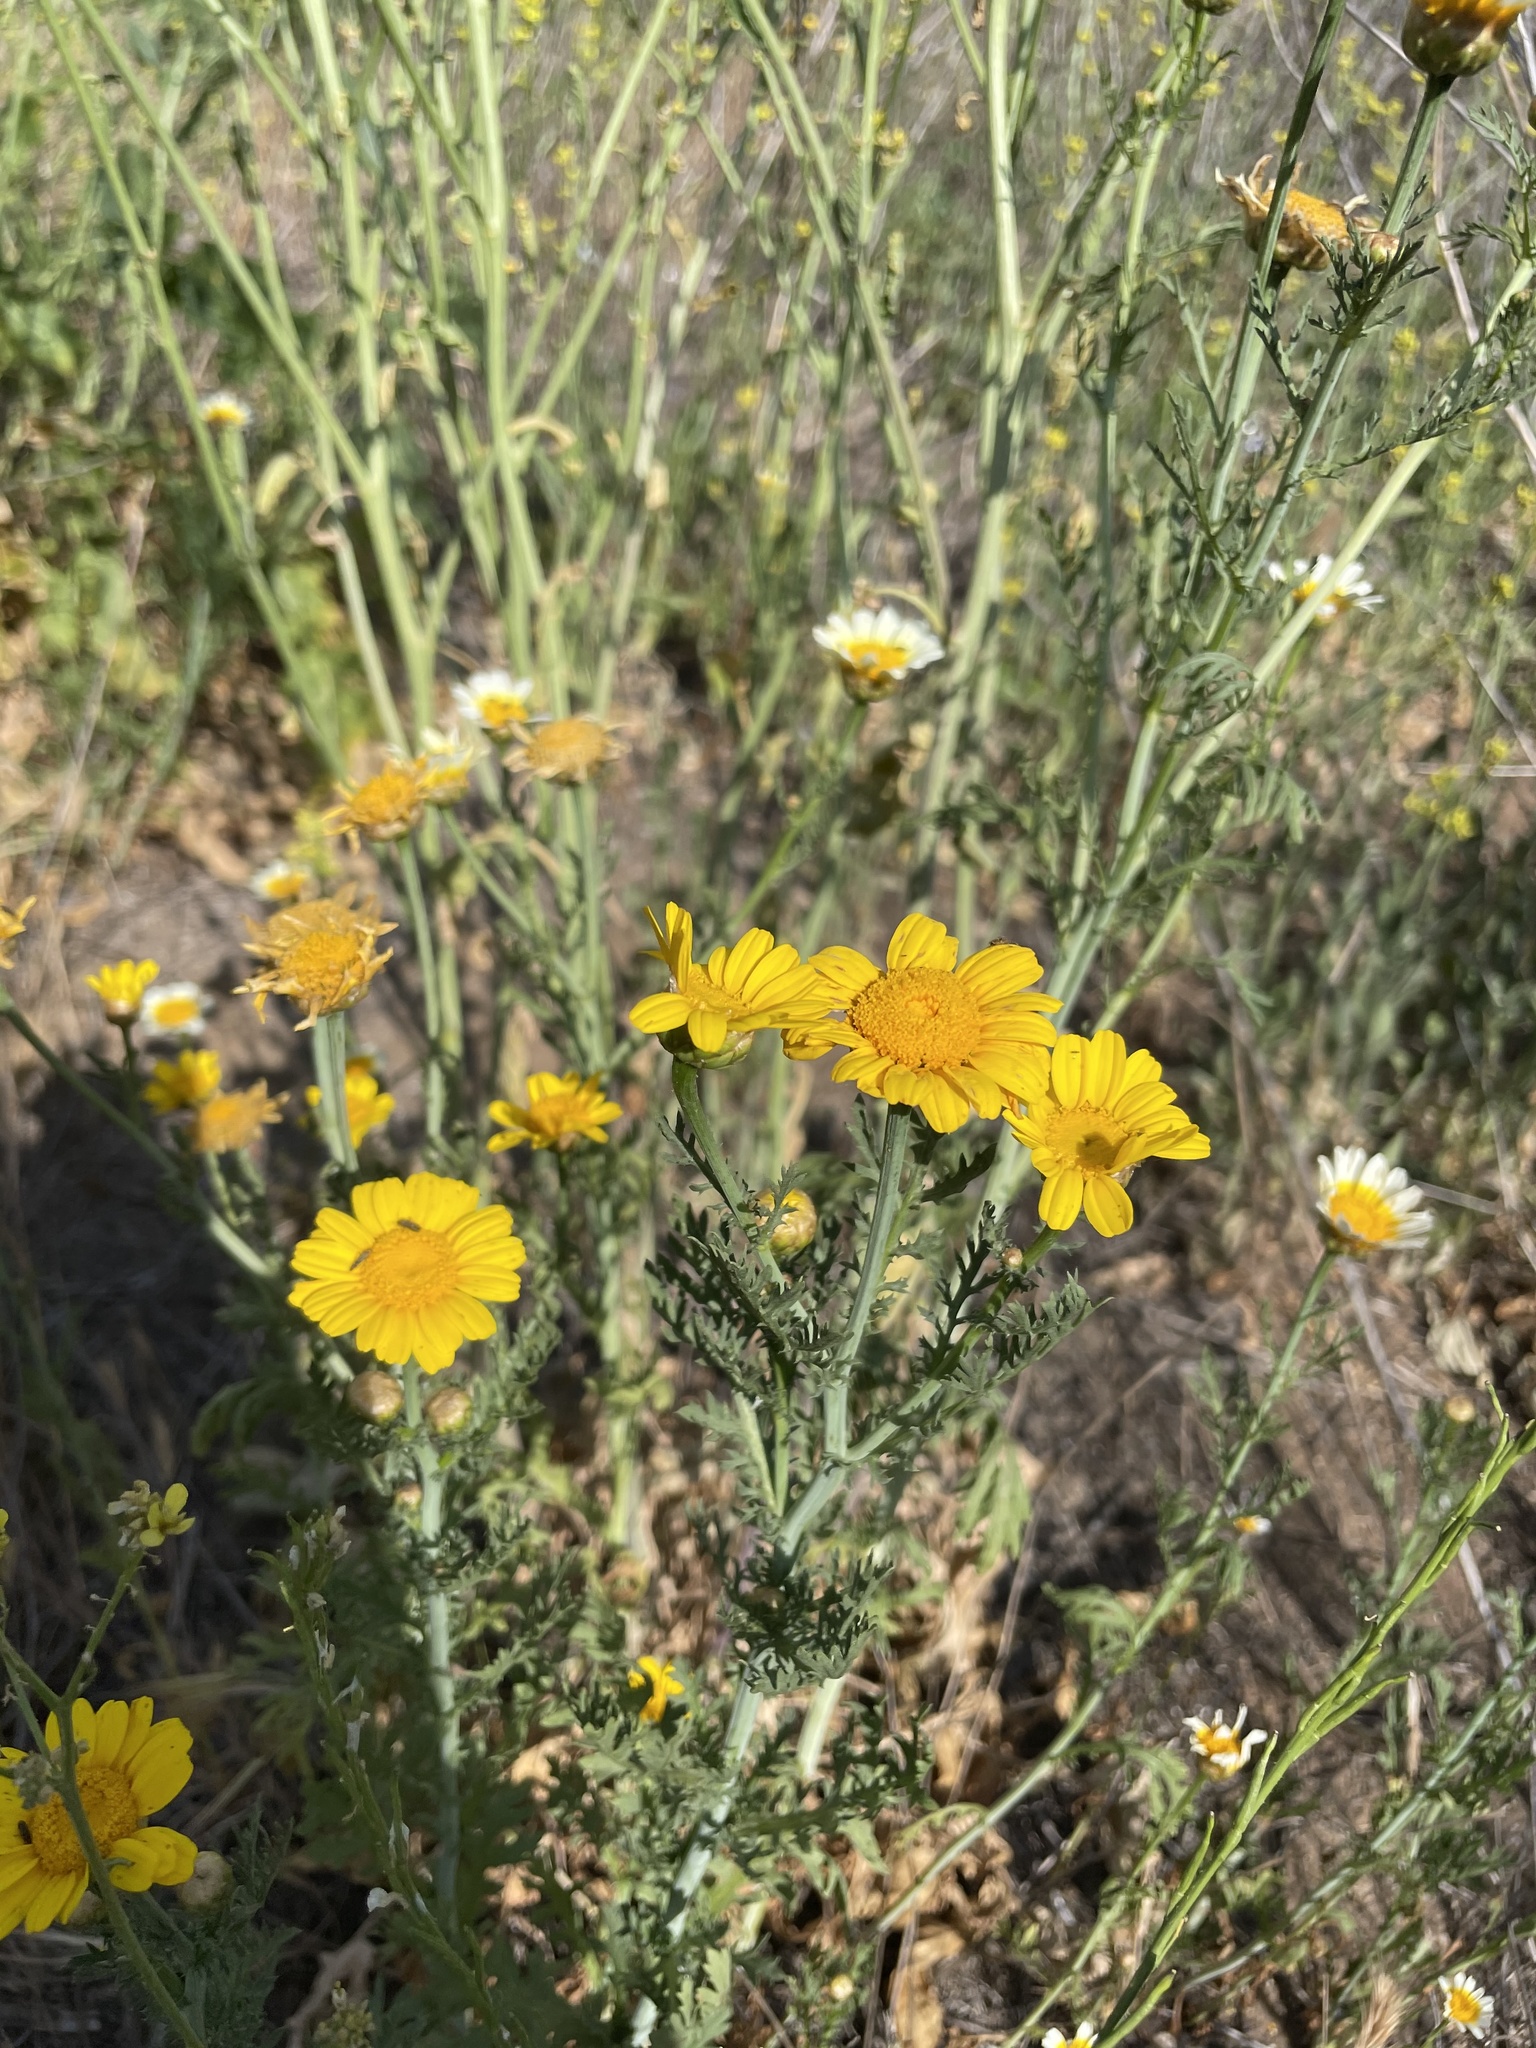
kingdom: Plantae
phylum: Tracheophyta
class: Magnoliopsida
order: Asterales
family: Asteraceae
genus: Glebionis
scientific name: Glebionis coronaria
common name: Crowndaisy
